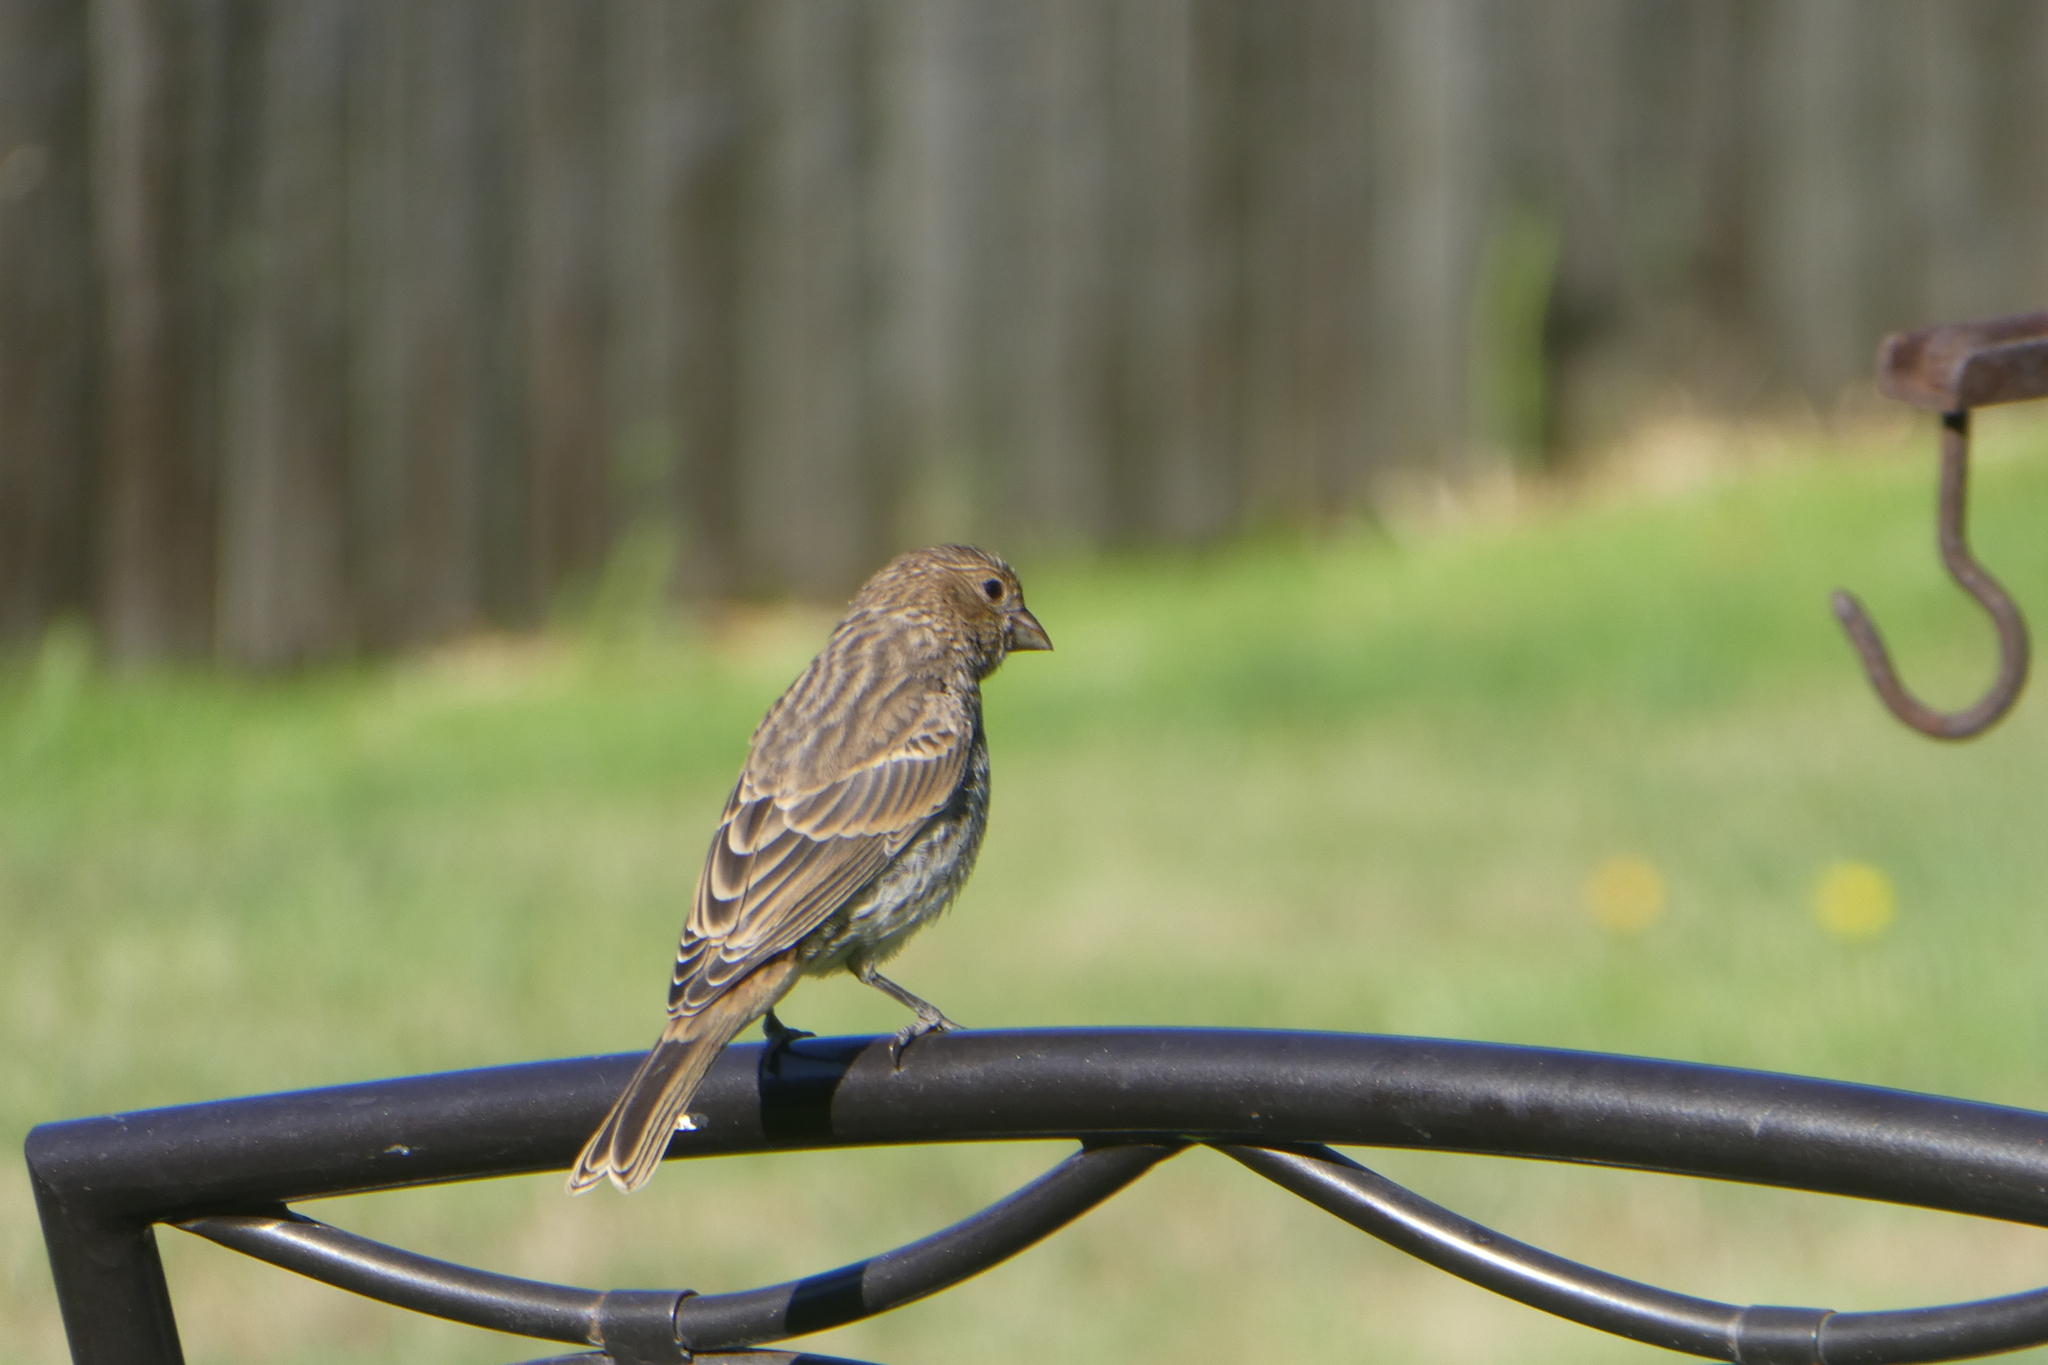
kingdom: Animalia
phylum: Chordata
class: Aves
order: Passeriformes
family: Fringillidae
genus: Haemorhous
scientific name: Haemorhous mexicanus
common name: House finch
